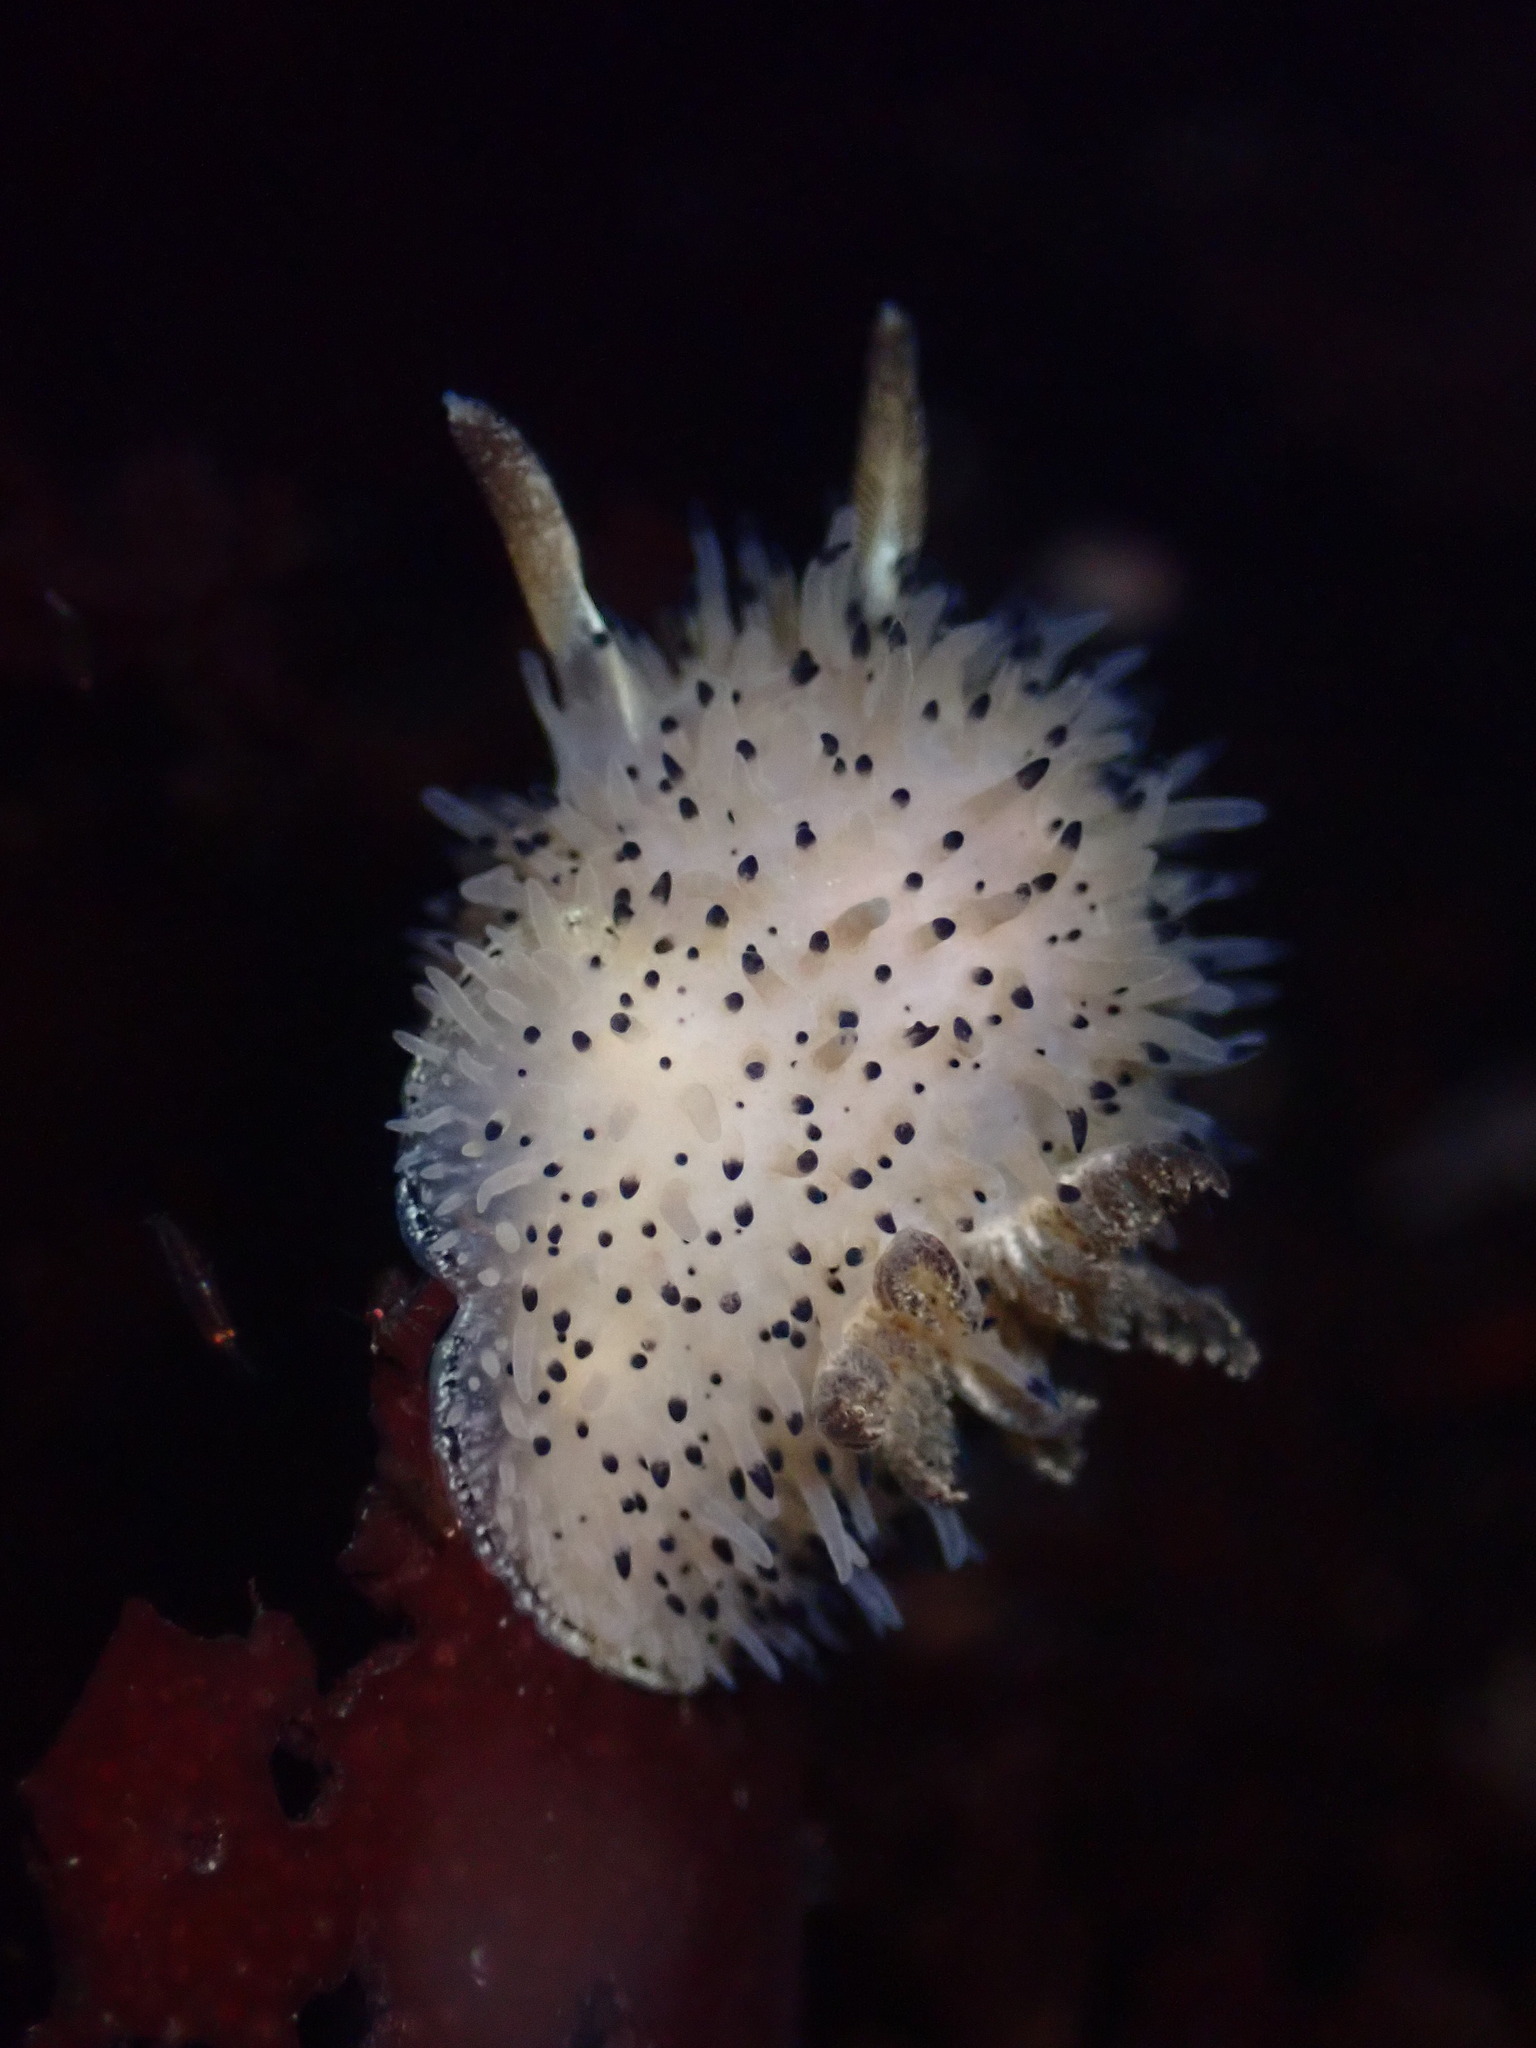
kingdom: Animalia
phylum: Mollusca
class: Gastropoda
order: Nudibranchia
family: Onchidorididae
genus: Acanthodoris
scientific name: Acanthodoris rhodoceras
